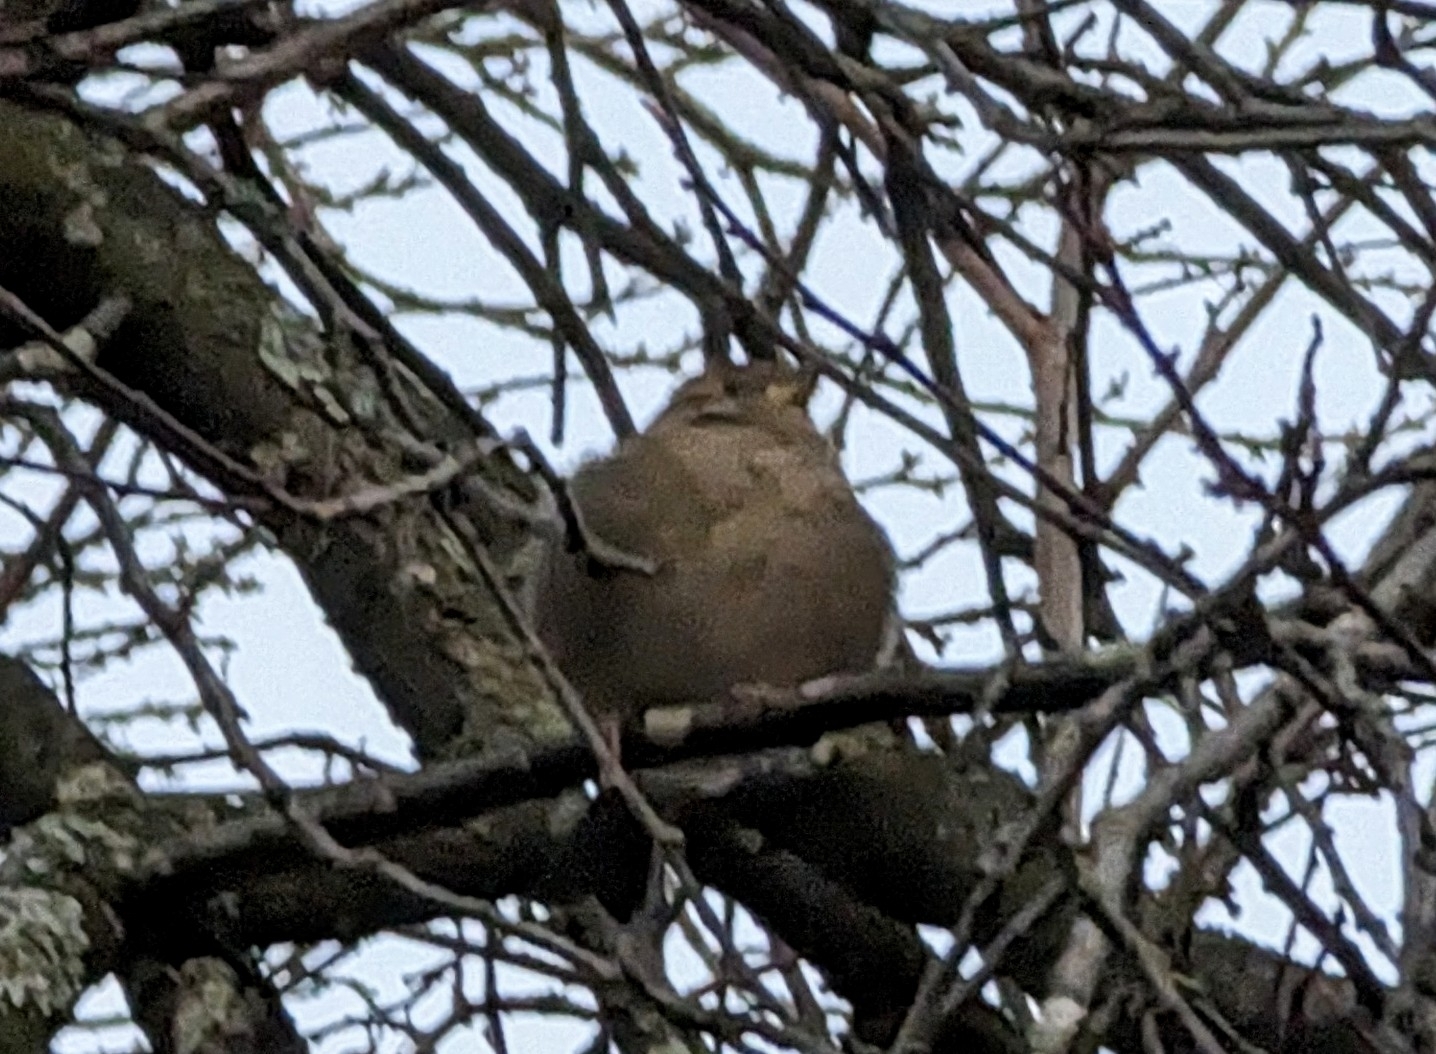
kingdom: Animalia
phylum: Chordata
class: Aves
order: Passeriformes
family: Passeridae
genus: Passer
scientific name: Passer domesticus
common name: House sparrow
